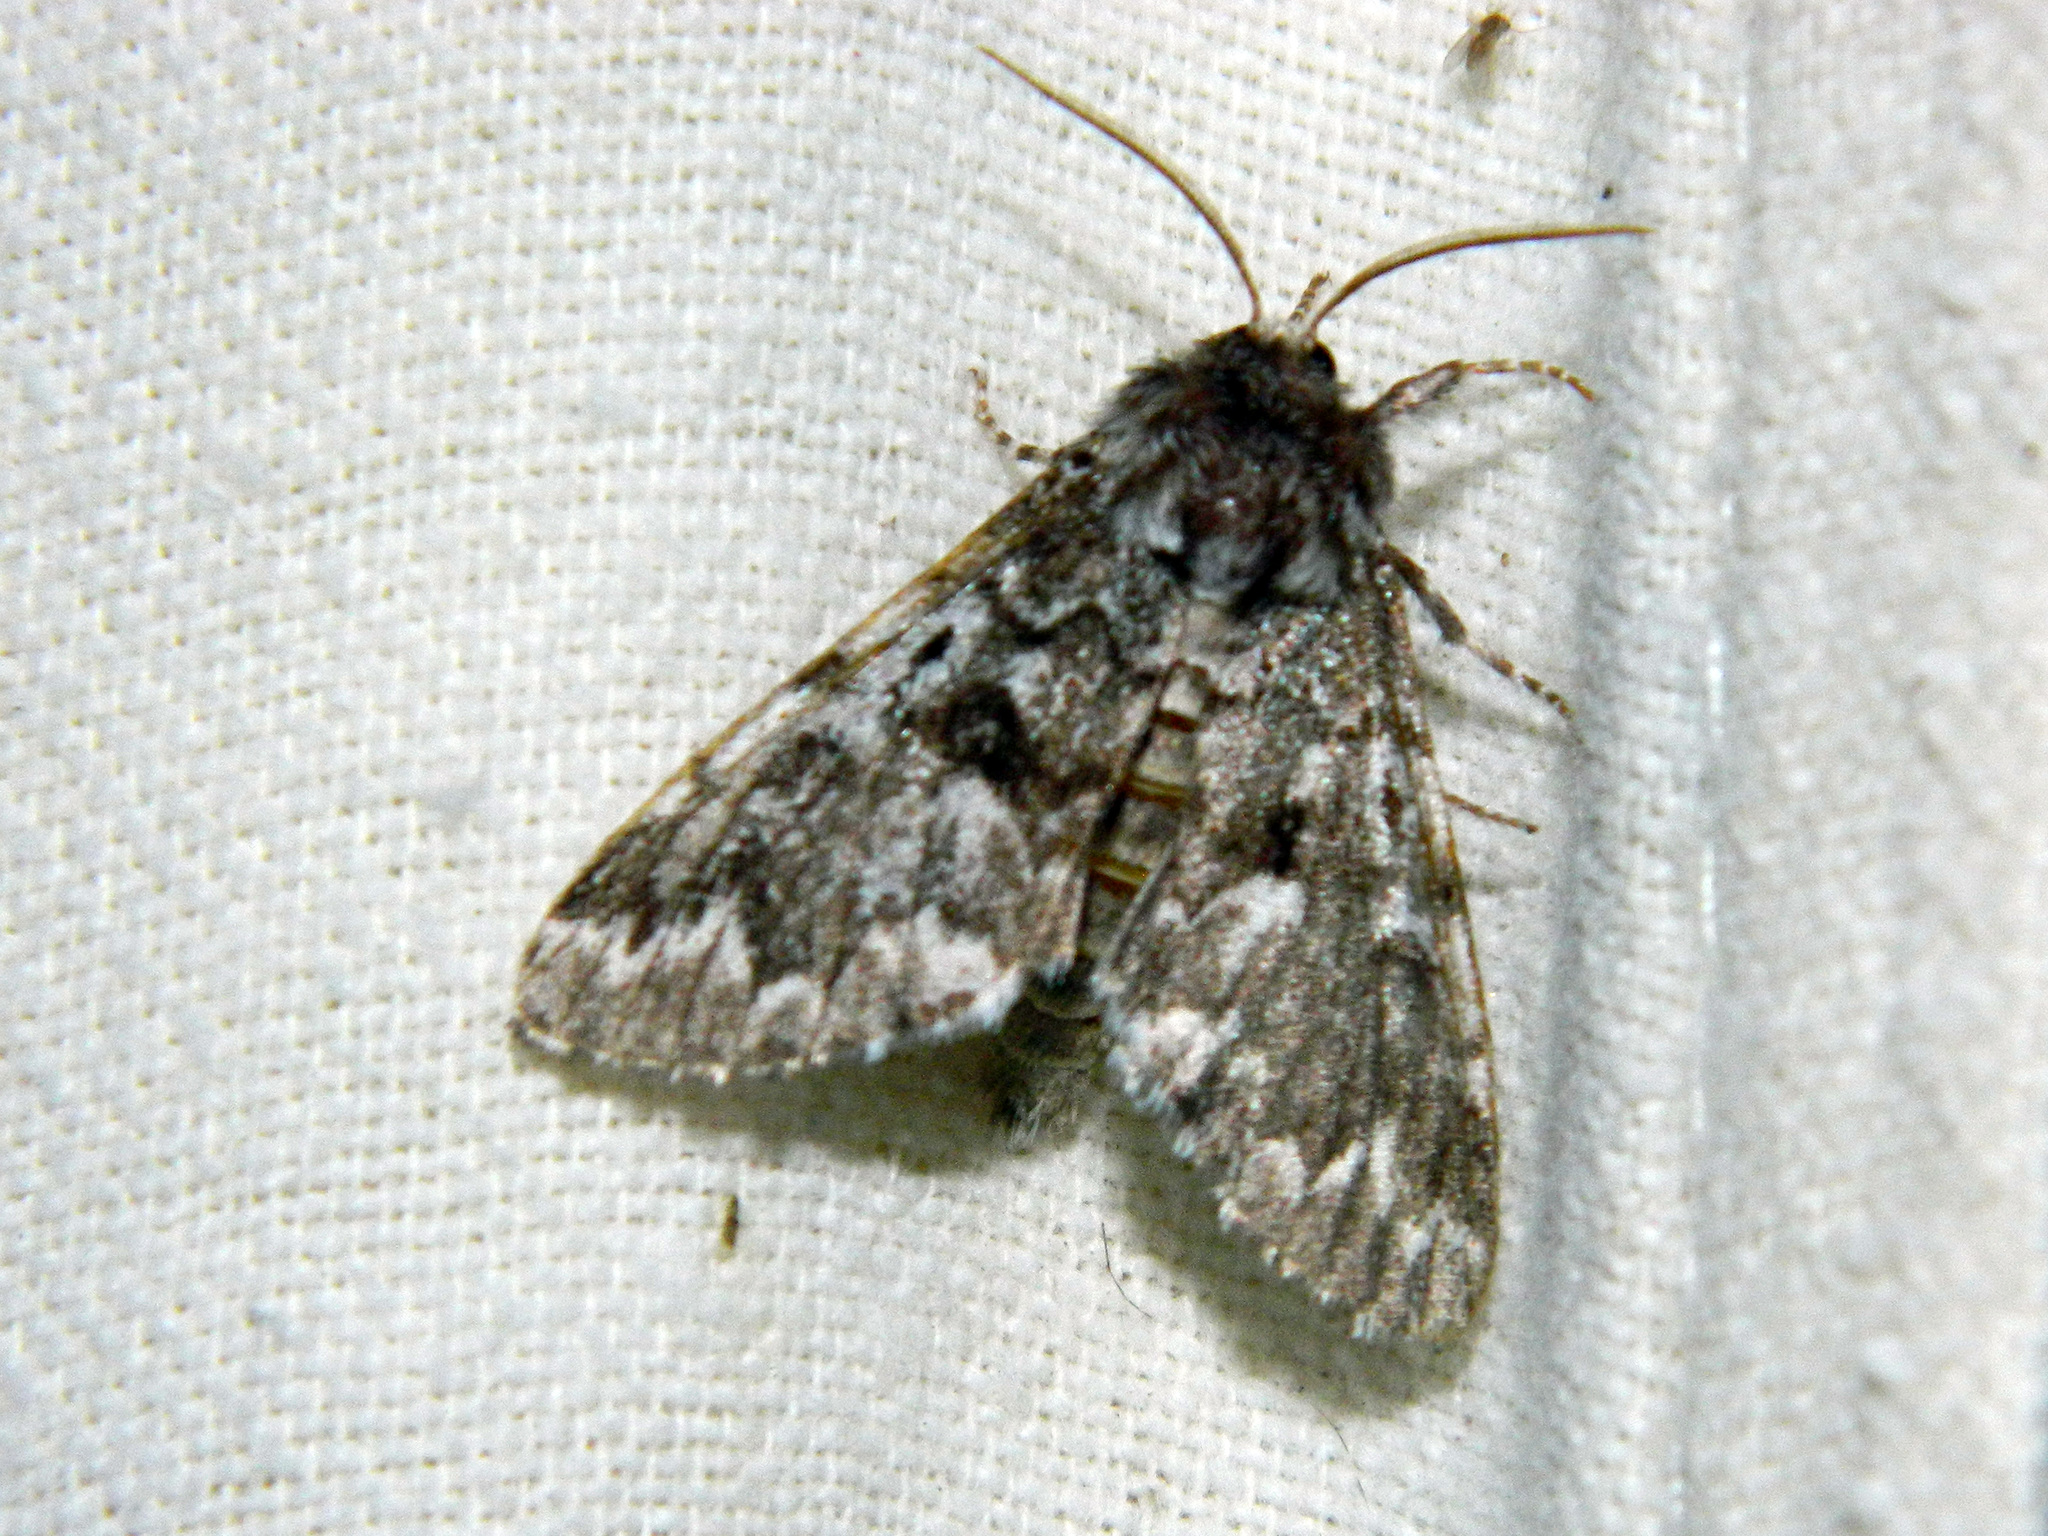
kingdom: Animalia
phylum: Arthropoda
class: Insecta
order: Lepidoptera
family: Noctuidae
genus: Panthea
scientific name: Panthea acronyctoides
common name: Black zigzag moth
